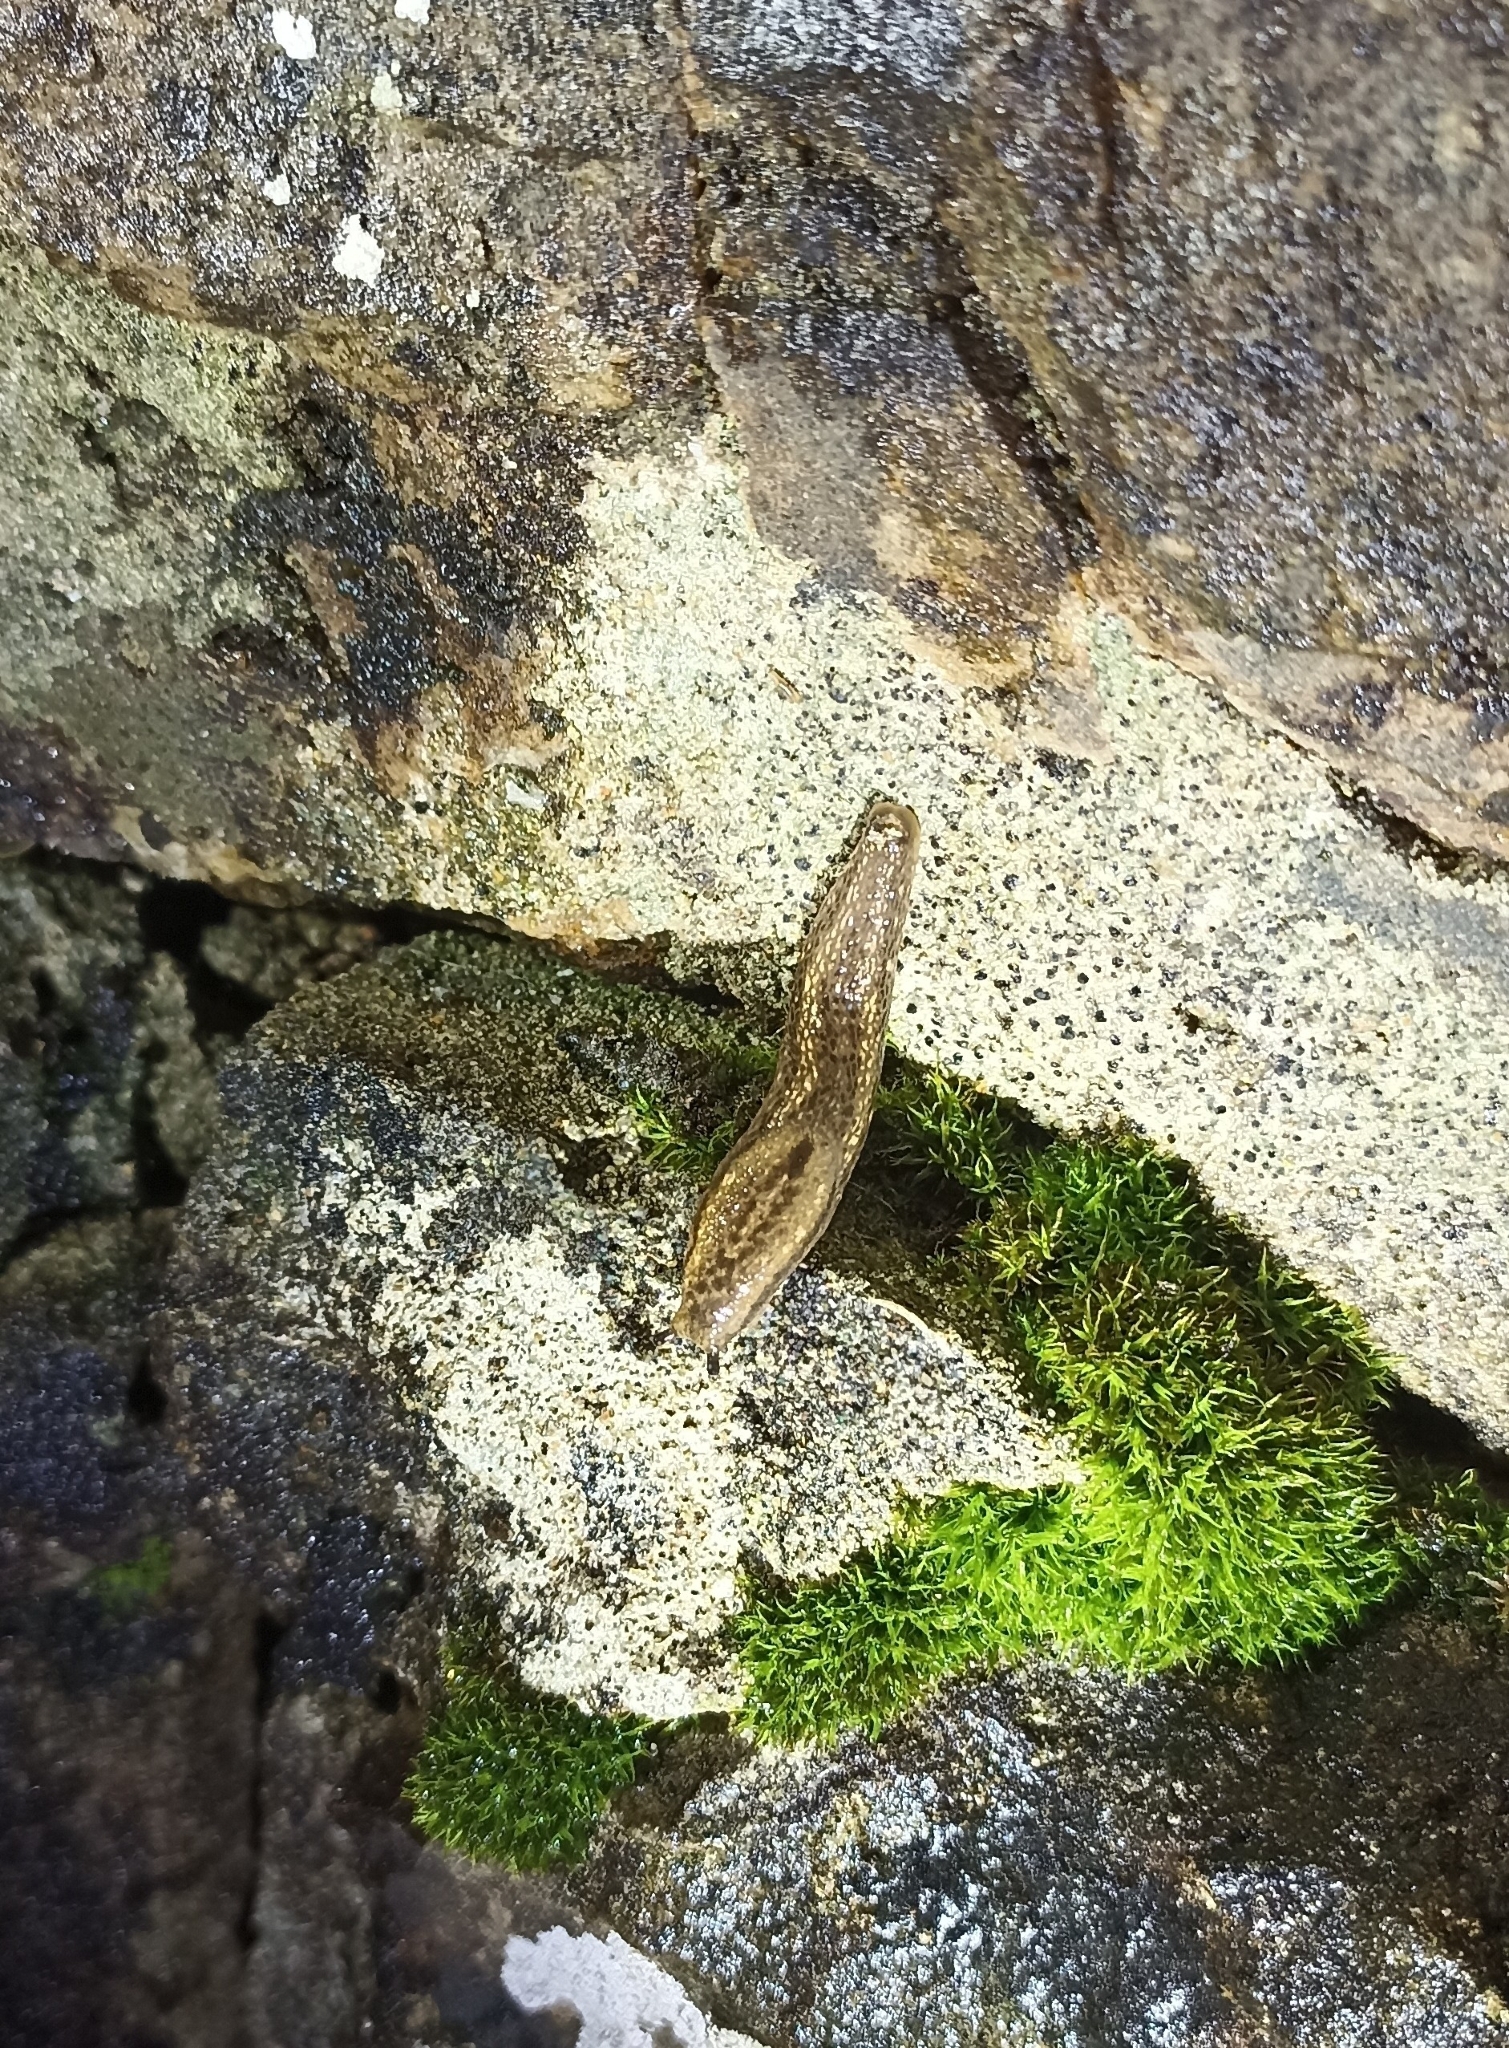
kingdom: Animalia
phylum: Mollusca
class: Gastropoda
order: Stylommatophora
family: Arionidae
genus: Geomalacus
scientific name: Geomalacus maculosus
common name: Kerry slug
